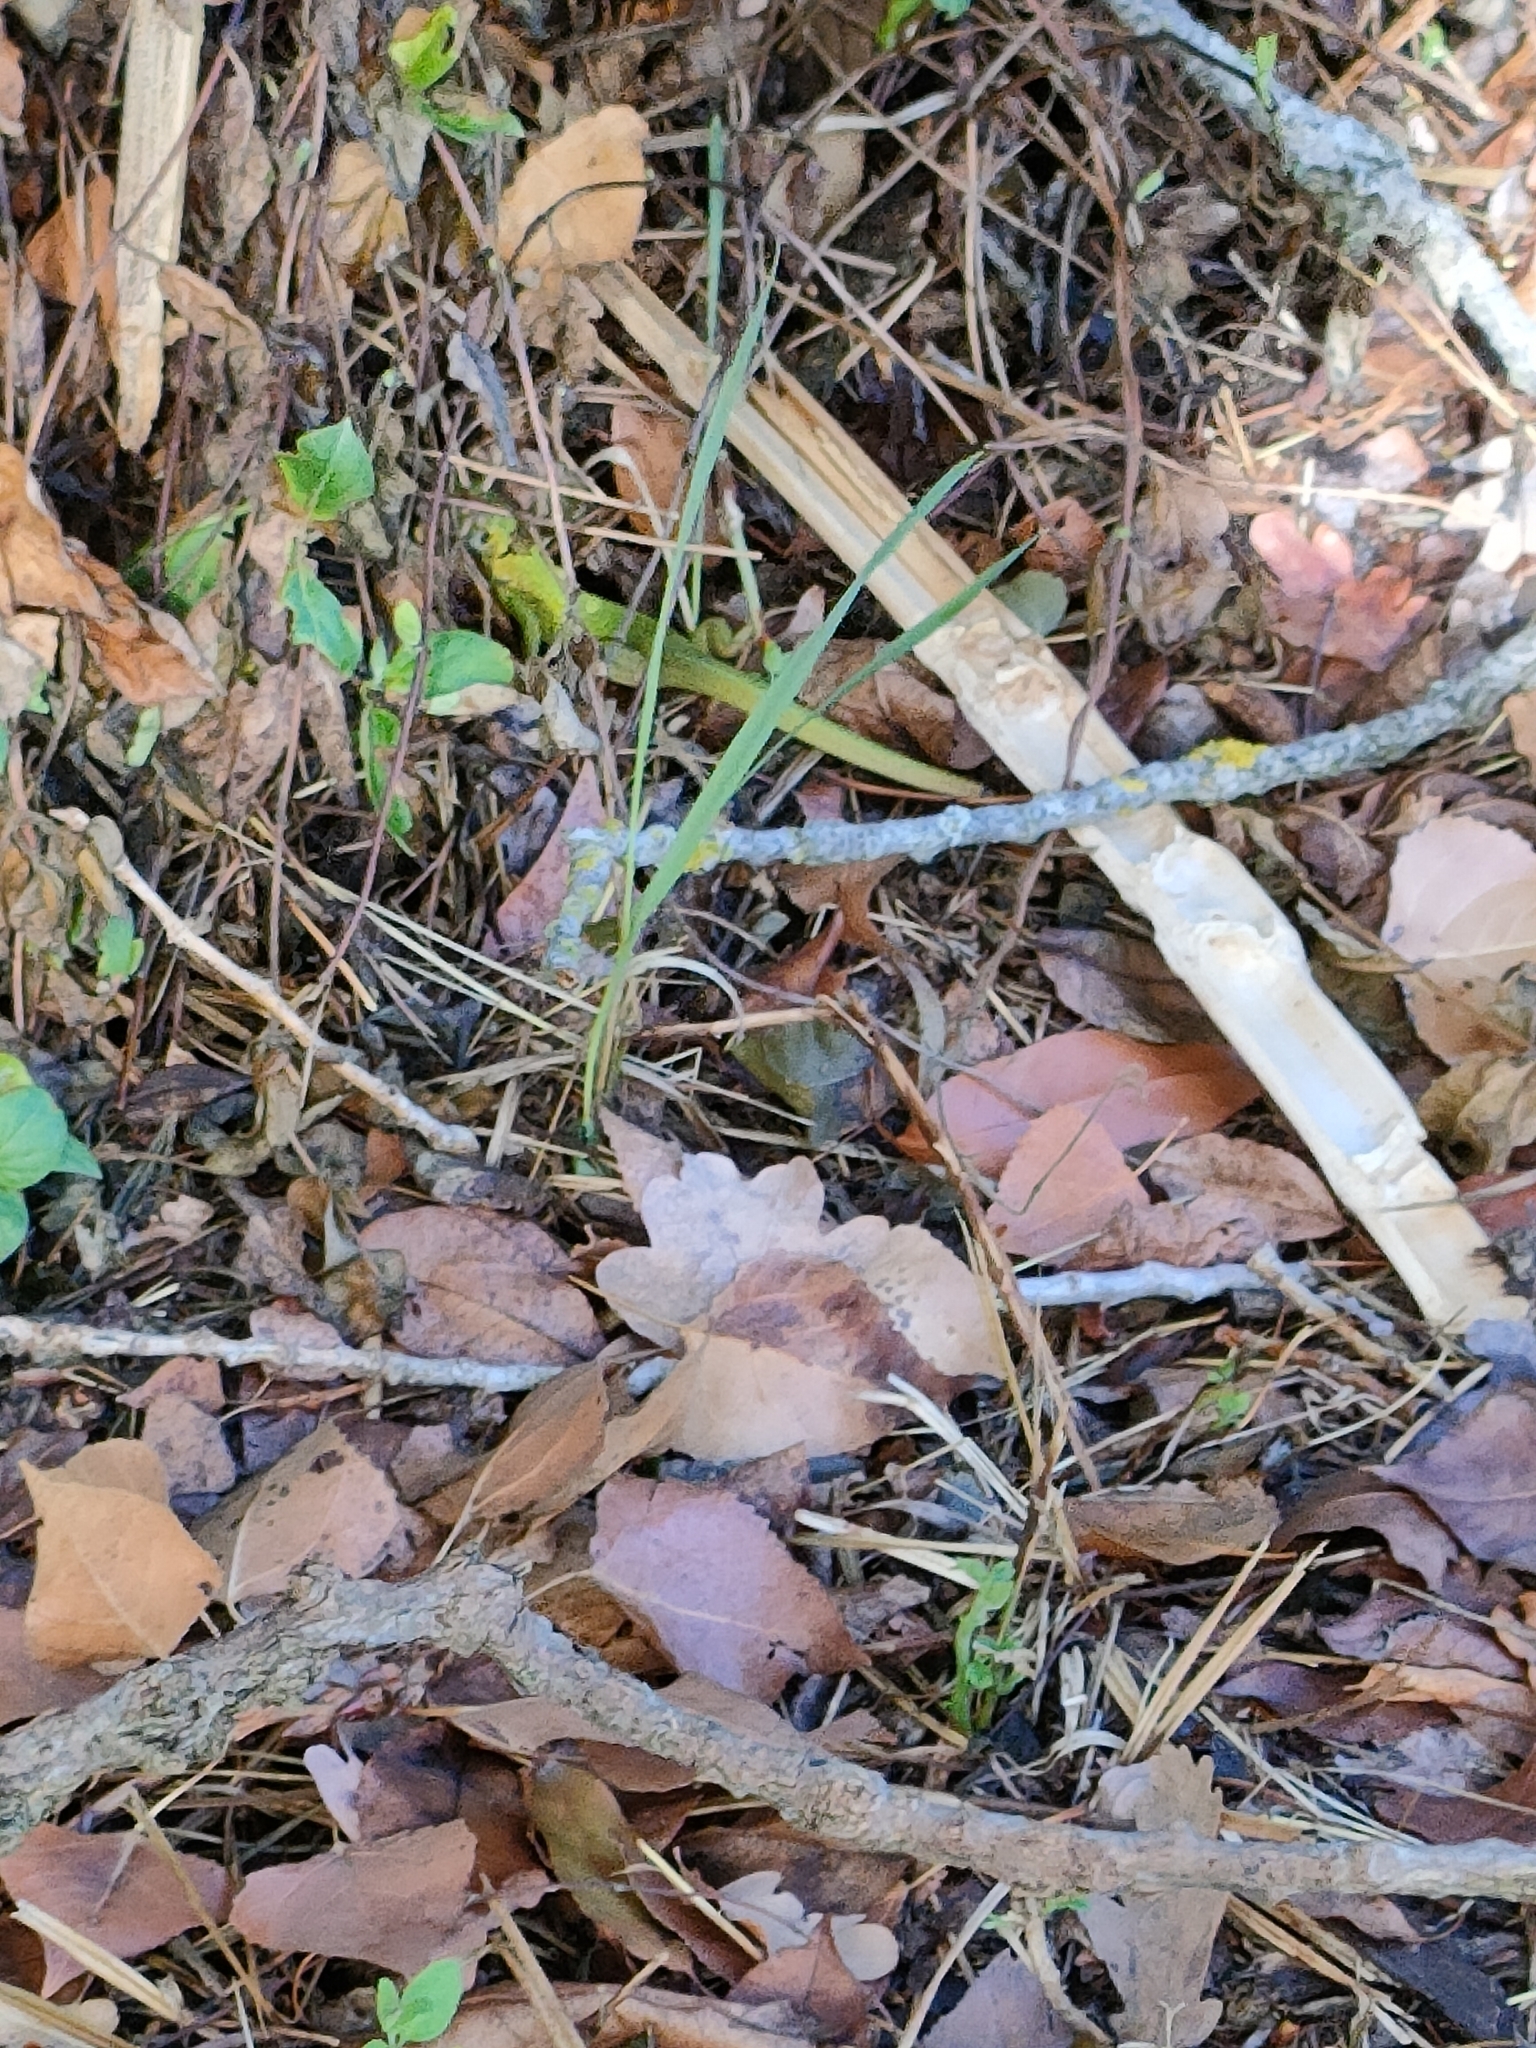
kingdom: Animalia
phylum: Chordata
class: Squamata
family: Lacertidae
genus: Lacerta
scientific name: Lacerta bilineata
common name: Western green lizard
